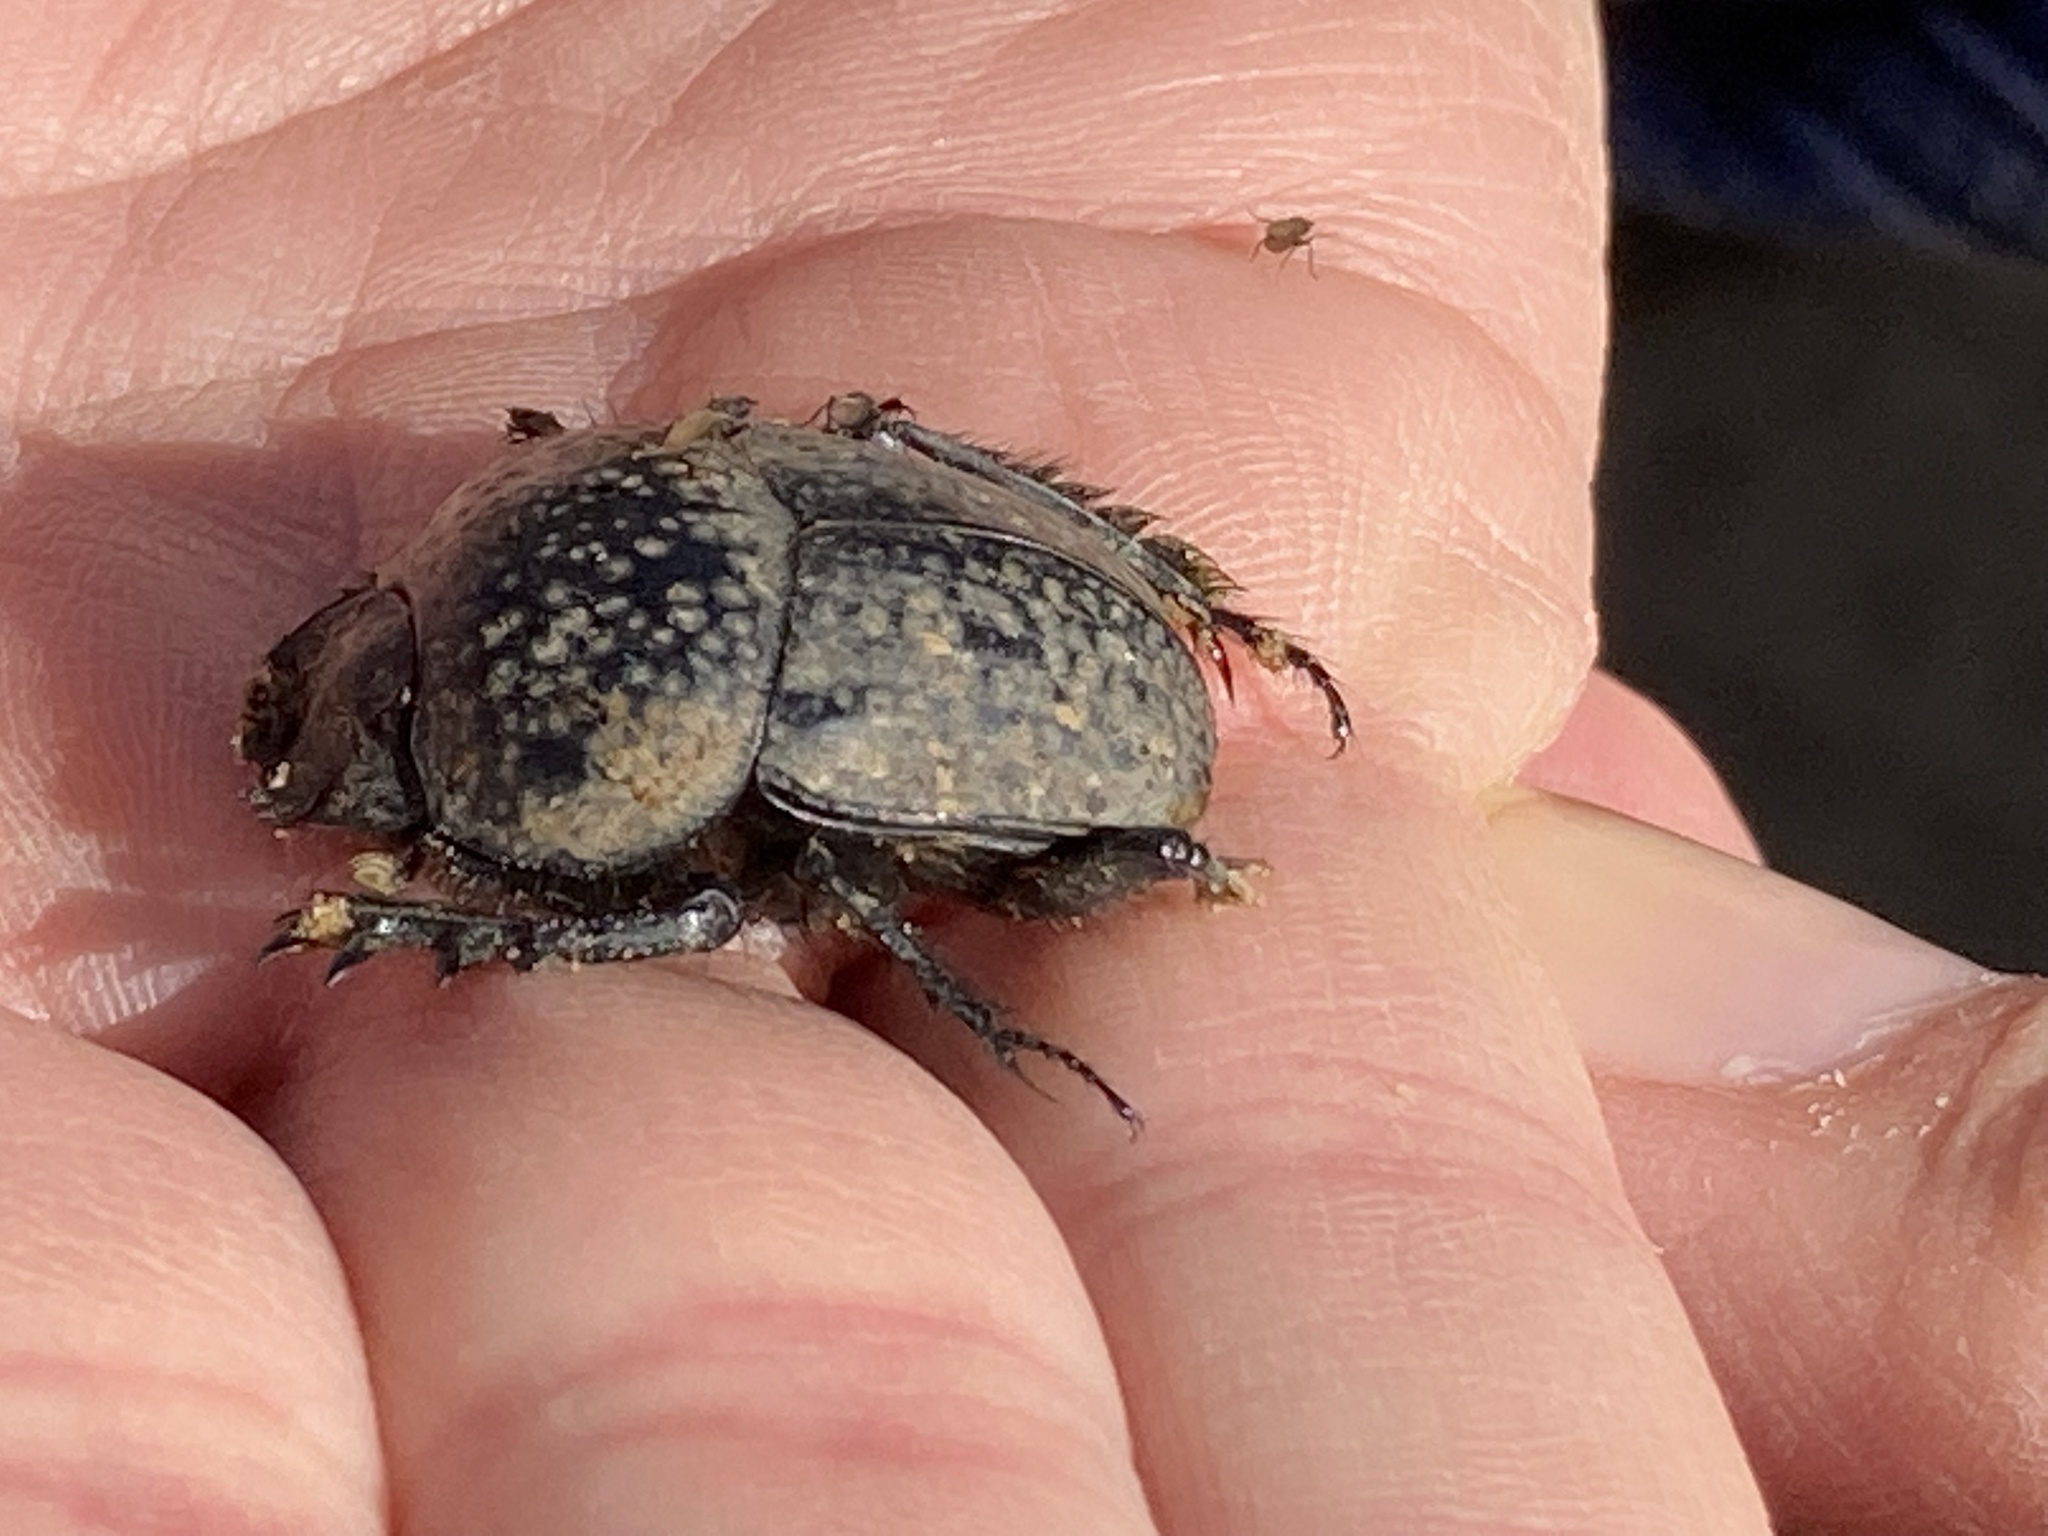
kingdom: Animalia
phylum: Arthropoda
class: Insecta
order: Coleoptera
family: Scarabaeidae
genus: Ateuchetus
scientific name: Ateuchetus cicatricosus
